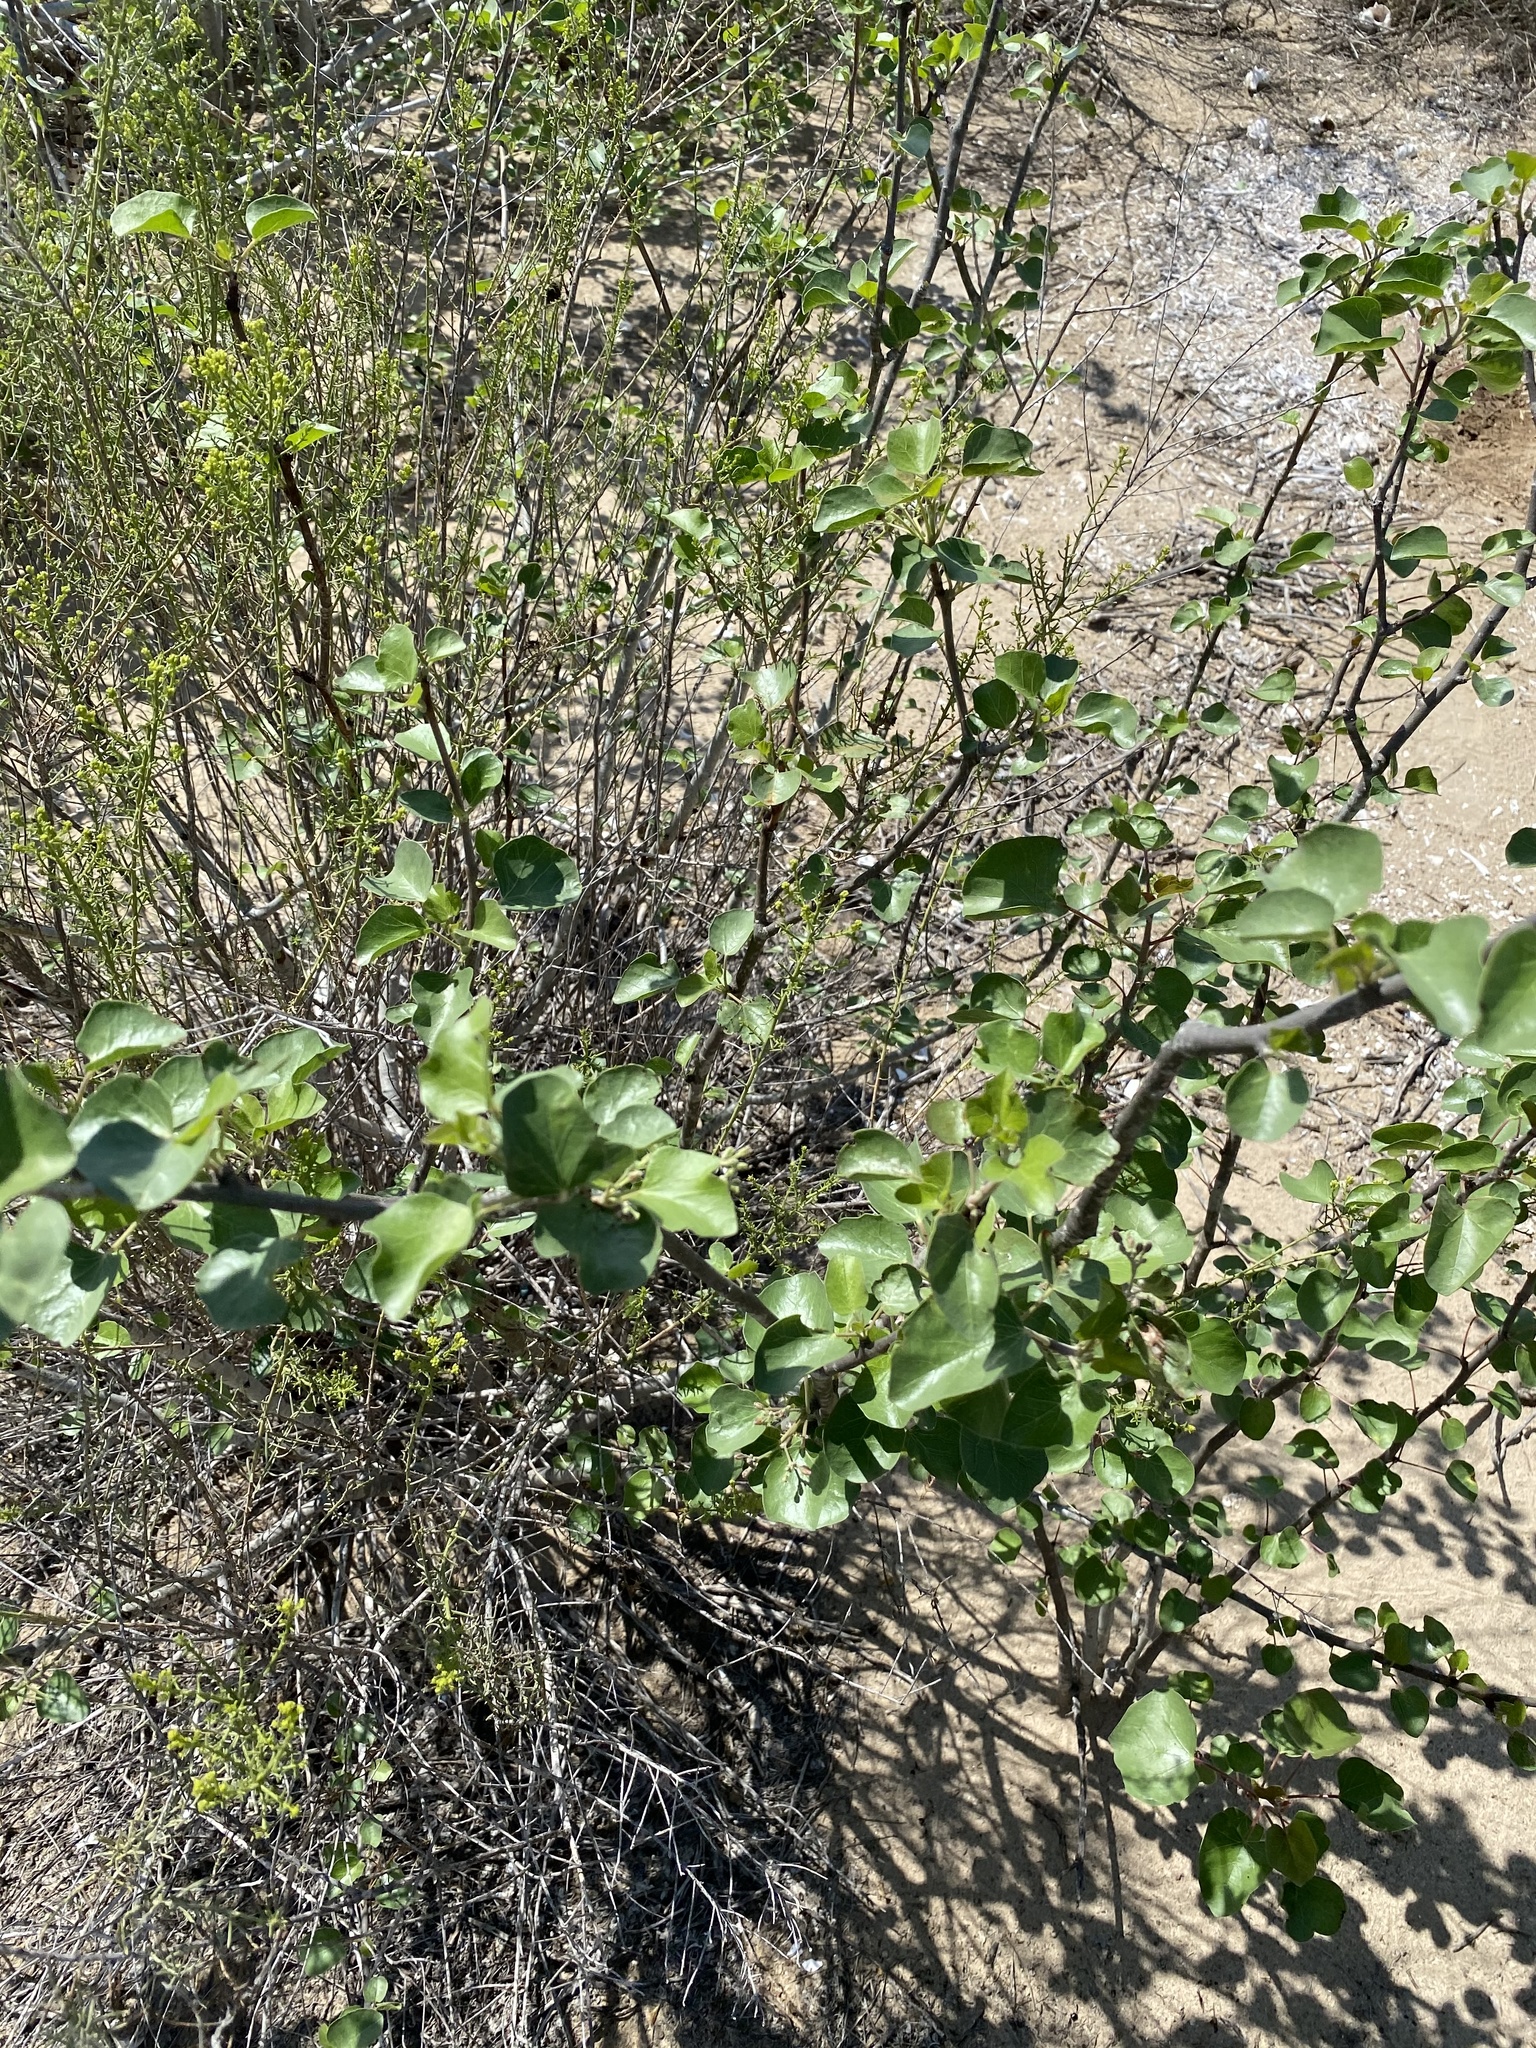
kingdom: Plantae
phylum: Tracheophyta
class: Magnoliopsida
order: Malpighiales
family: Euphorbiaceae
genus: Jatropha
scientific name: Jatropha cinerea
